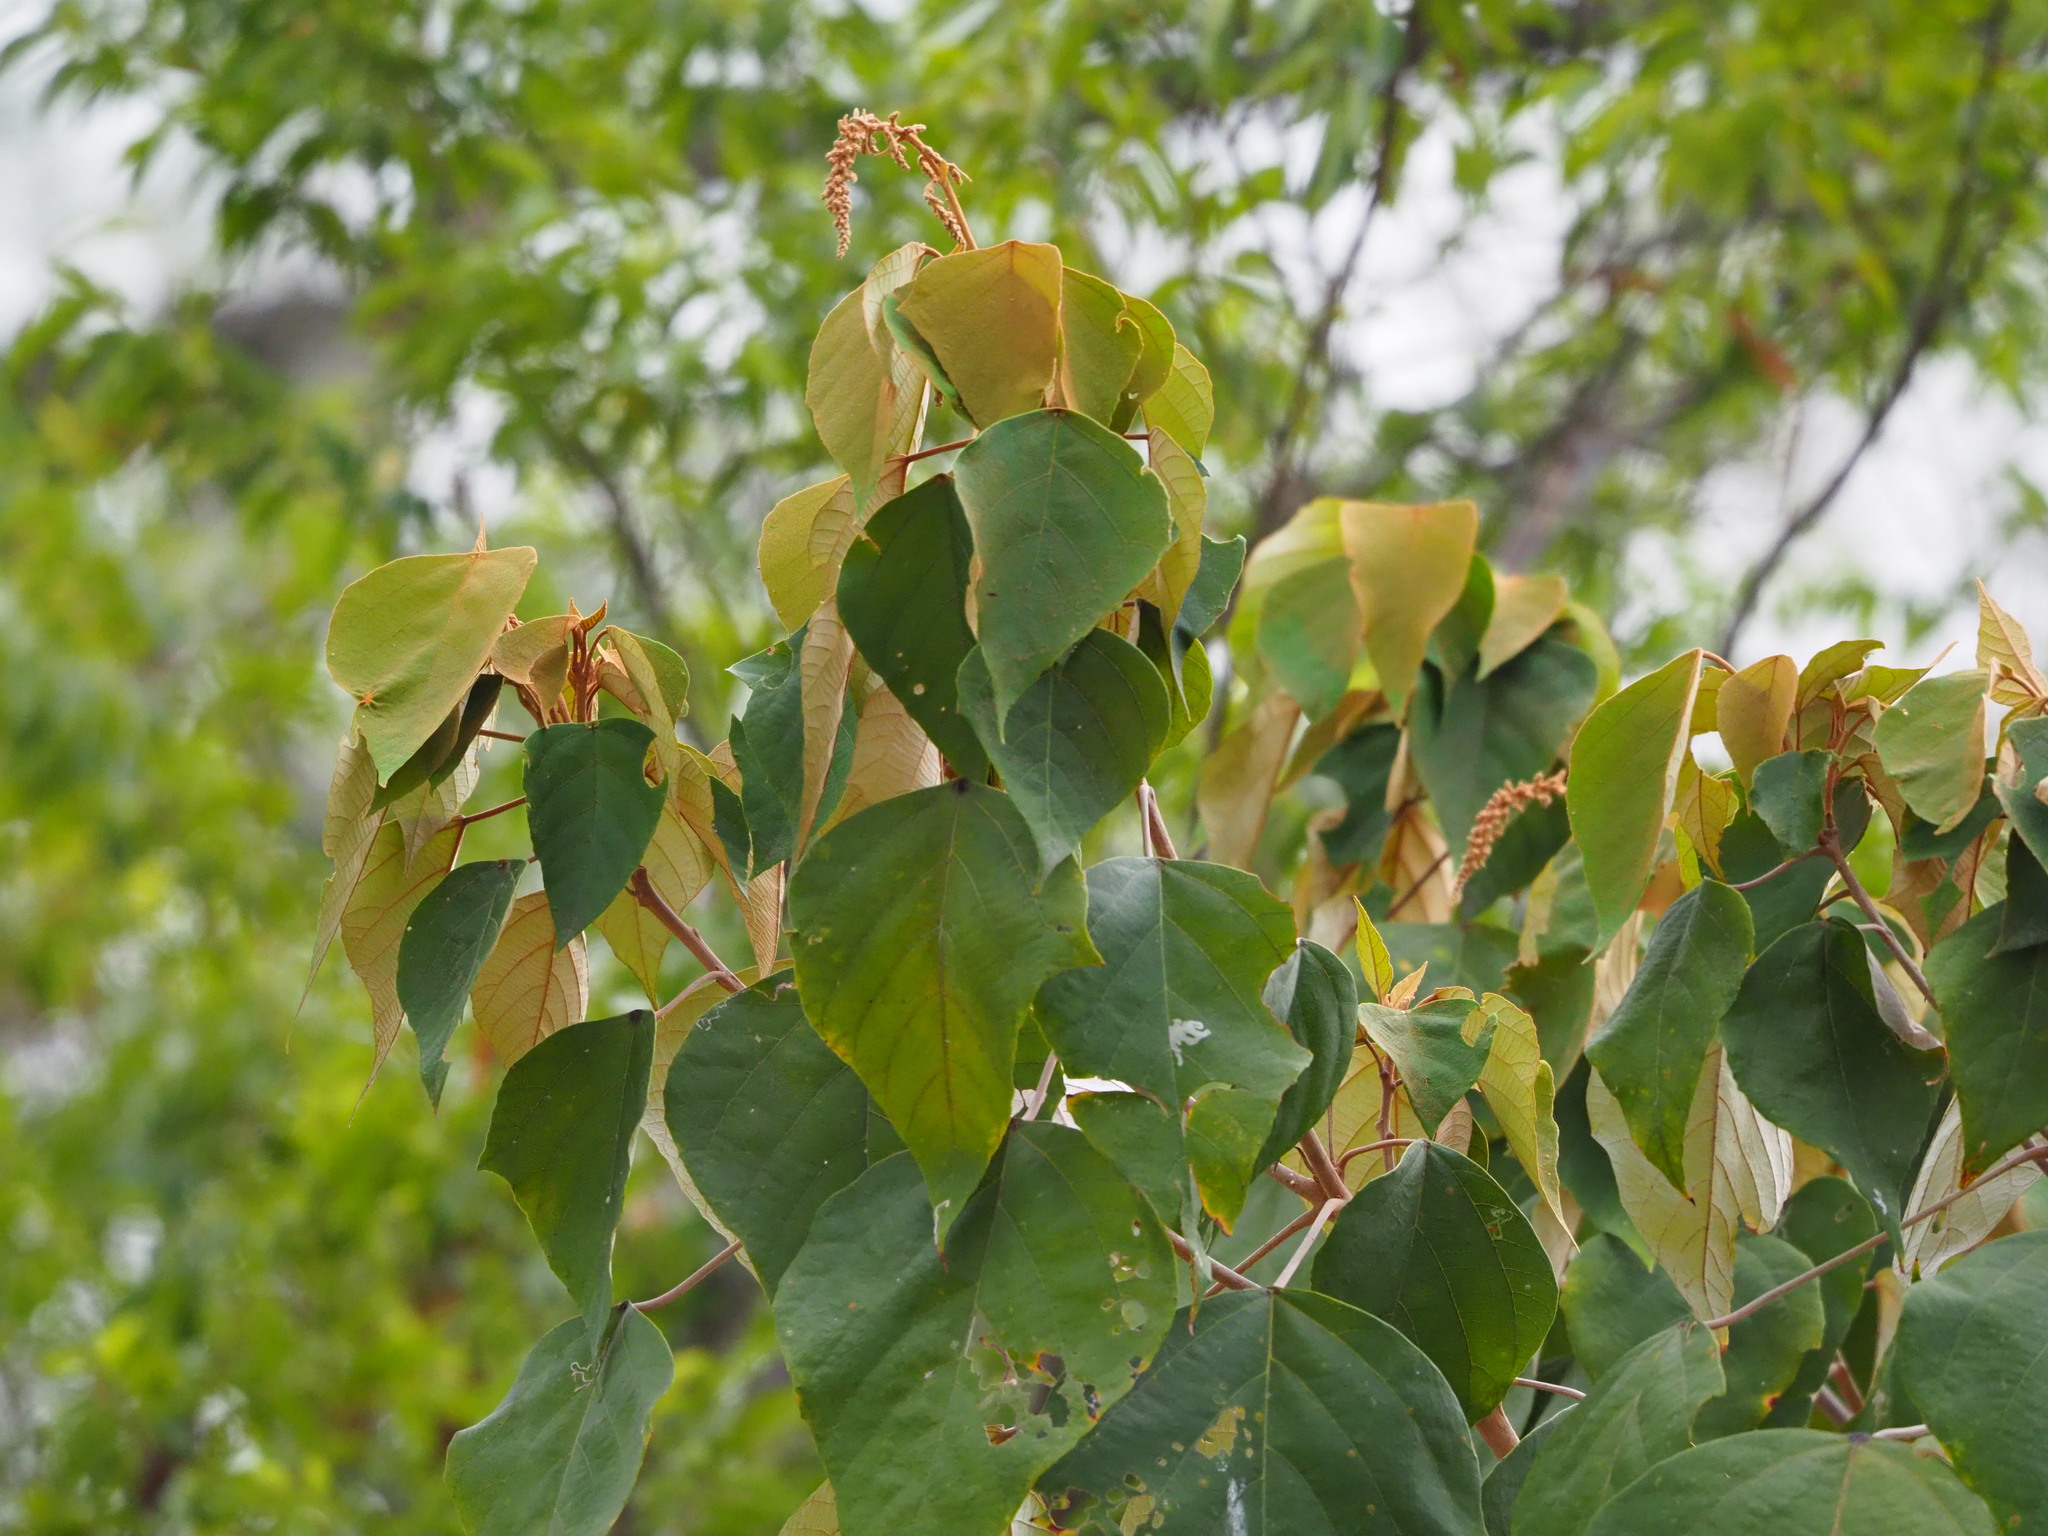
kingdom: Plantae
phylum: Tracheophyta
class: Magnoliopsida
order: Malpighiales
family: Euphorbiaceae
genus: Mallotus
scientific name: Mallotus paniculatus
